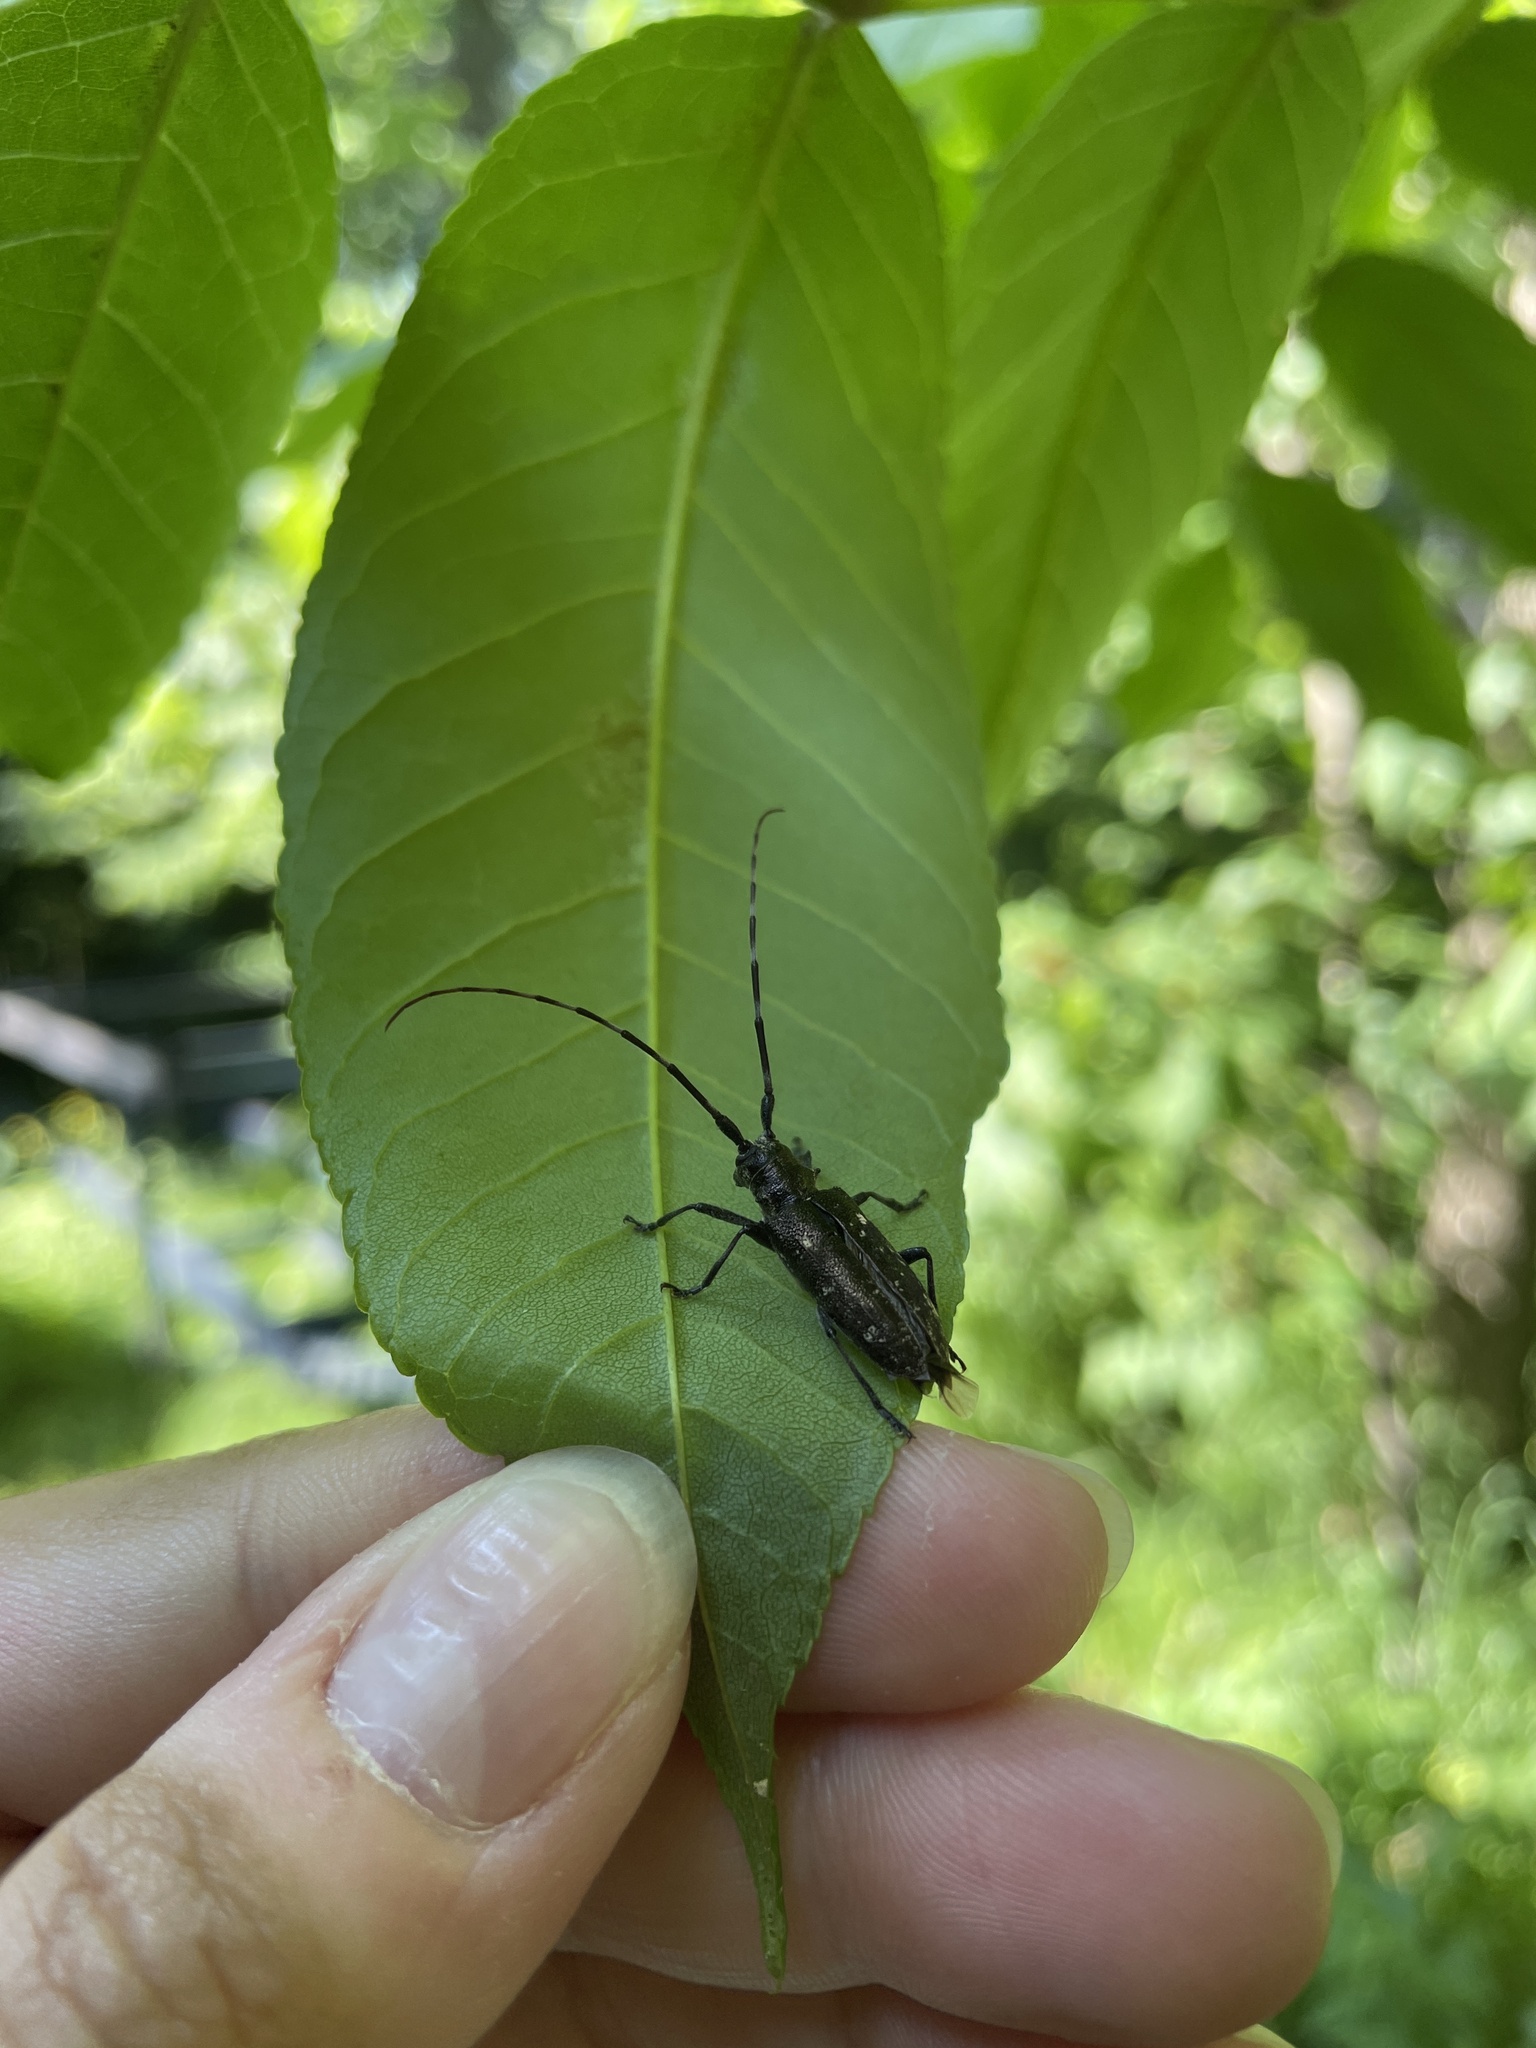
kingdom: Animalia
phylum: Arthropoda
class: Insecta
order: Coleoptera
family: Cerambycidae
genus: Monochamus
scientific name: Monochamus scutellatus
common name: White-spotted sawyer beetle
